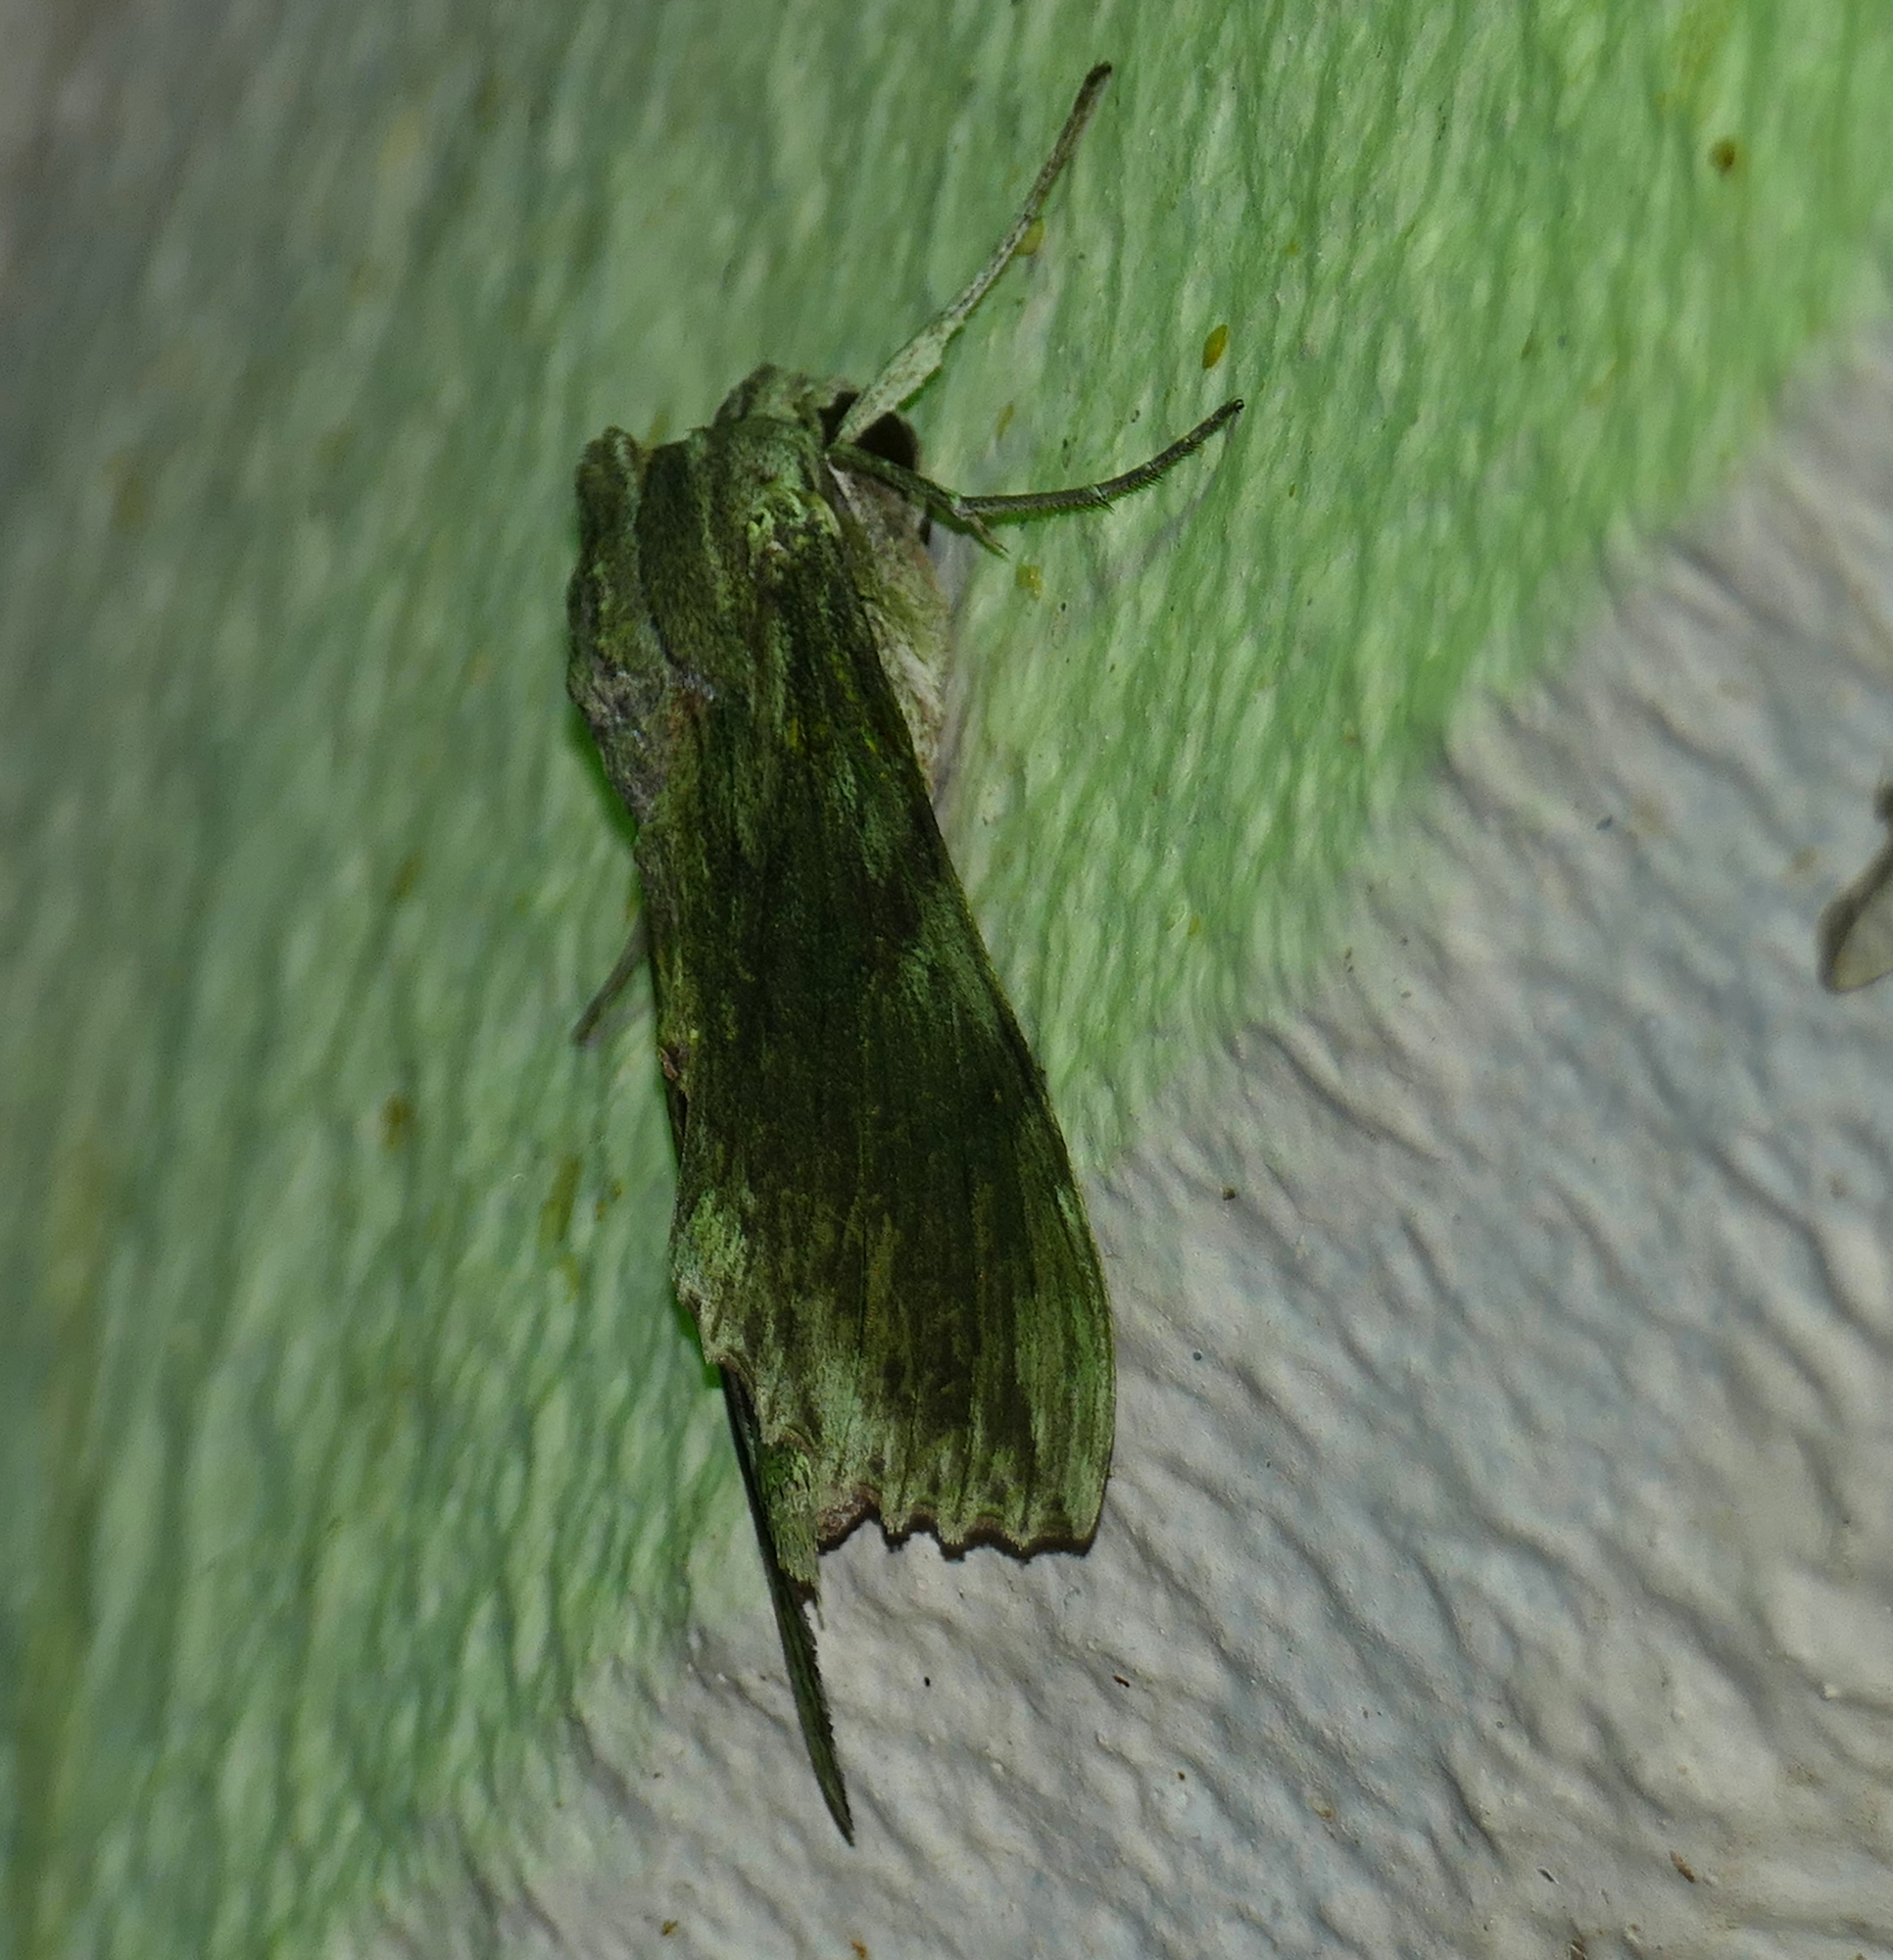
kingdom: Animalia
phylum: Arthropoda
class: Insecta
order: Lepidoptera
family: Sphingidae
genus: Erinnyis
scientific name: Erinnyis obscura
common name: Obscure sphinx
